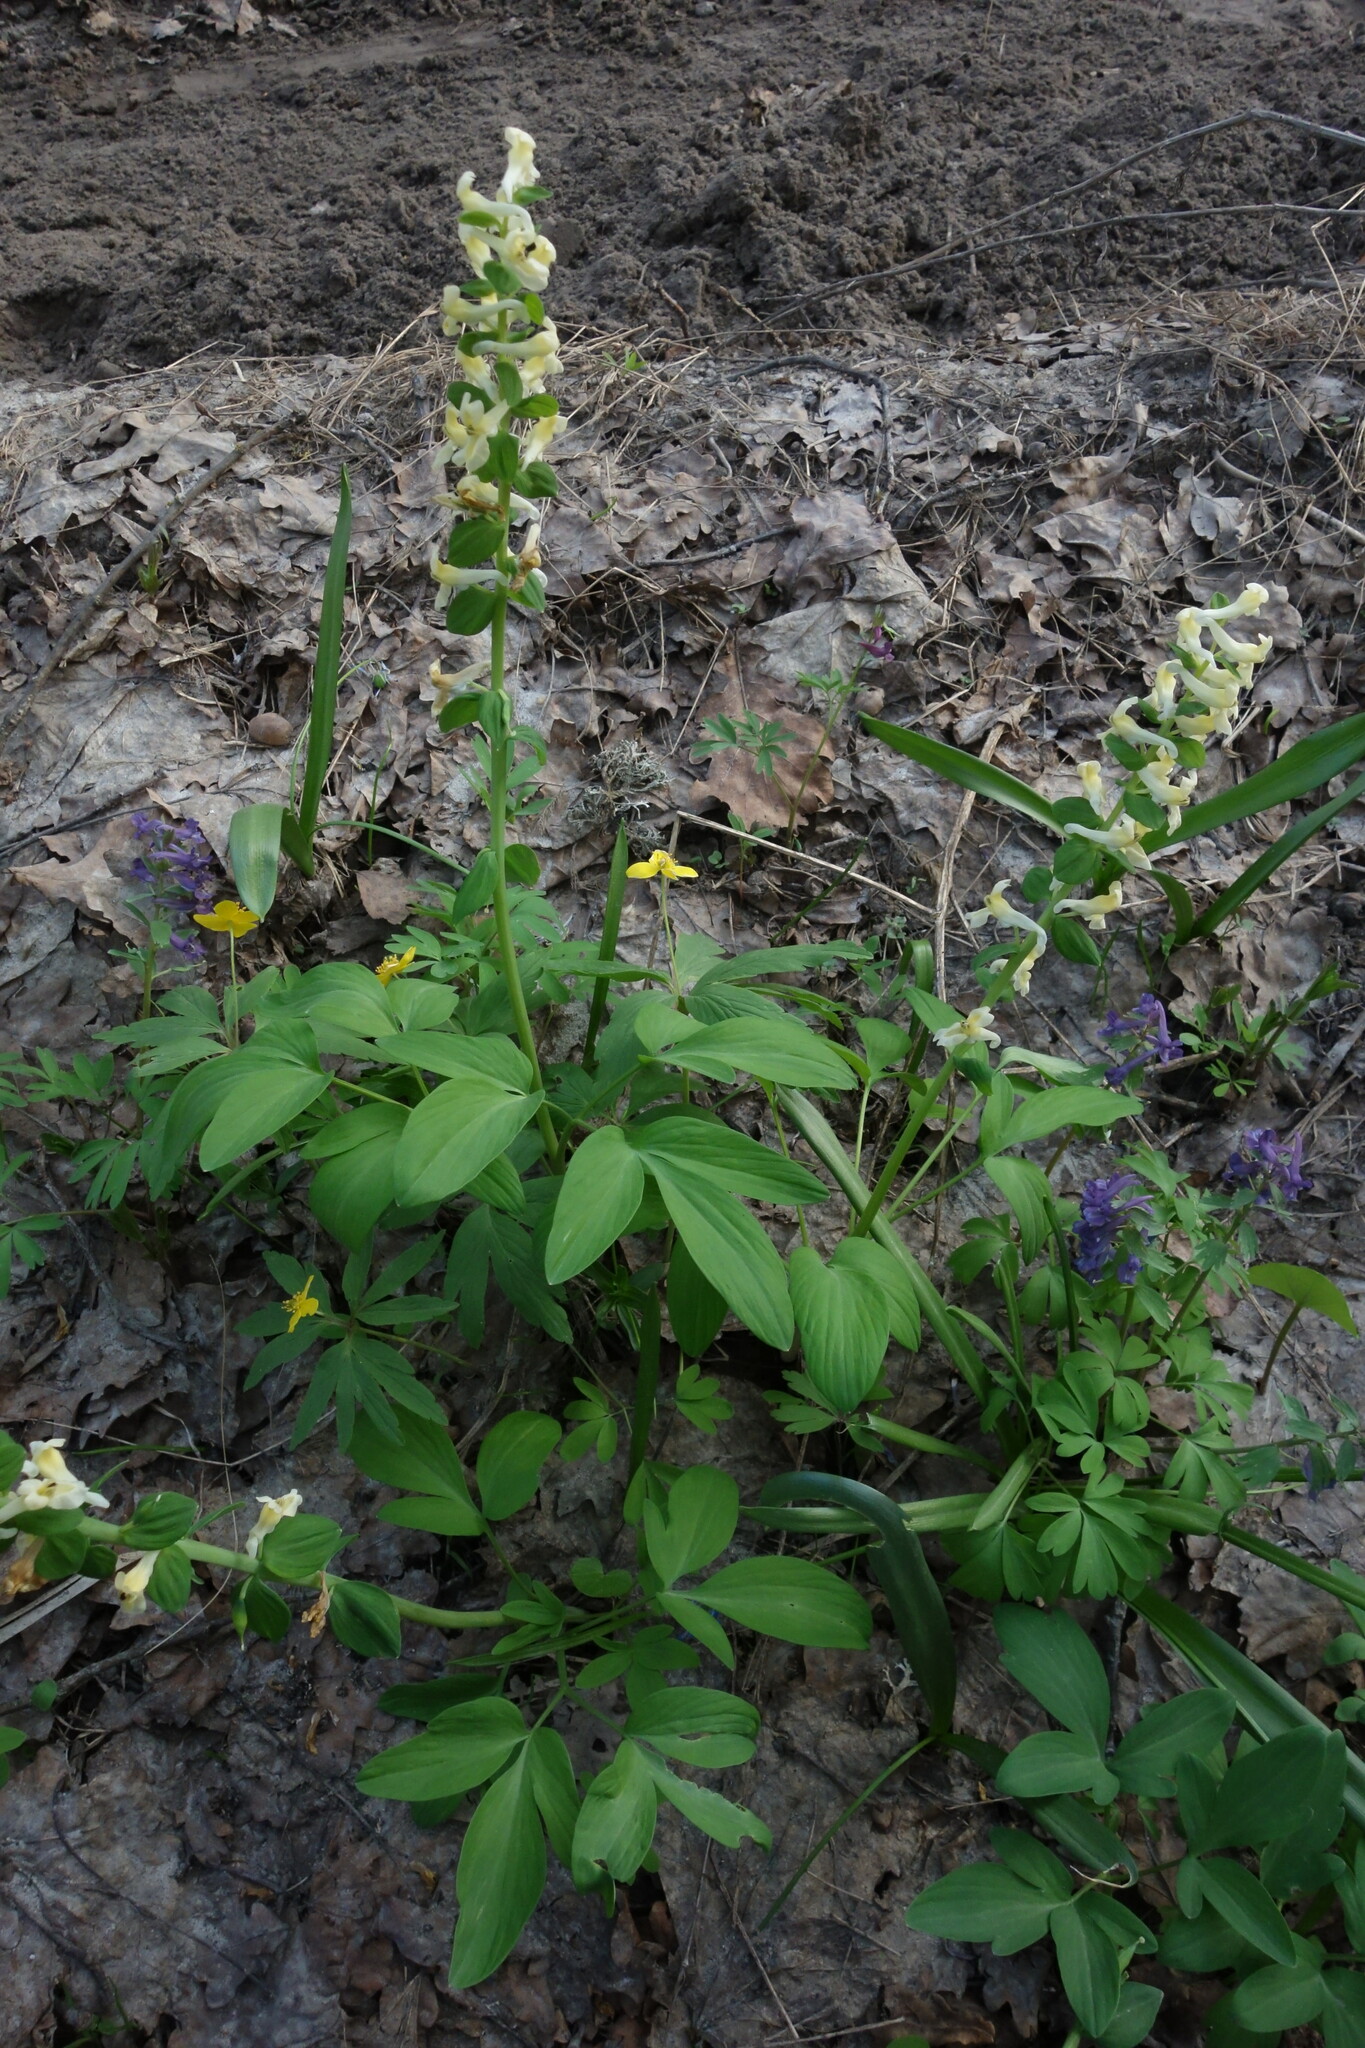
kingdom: Plantae
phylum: Tracheophyta
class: Magnoliopsida
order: Ranunculales
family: Papaveraceae
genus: Corydalis
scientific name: Corydalis cava
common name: Hollowroot
